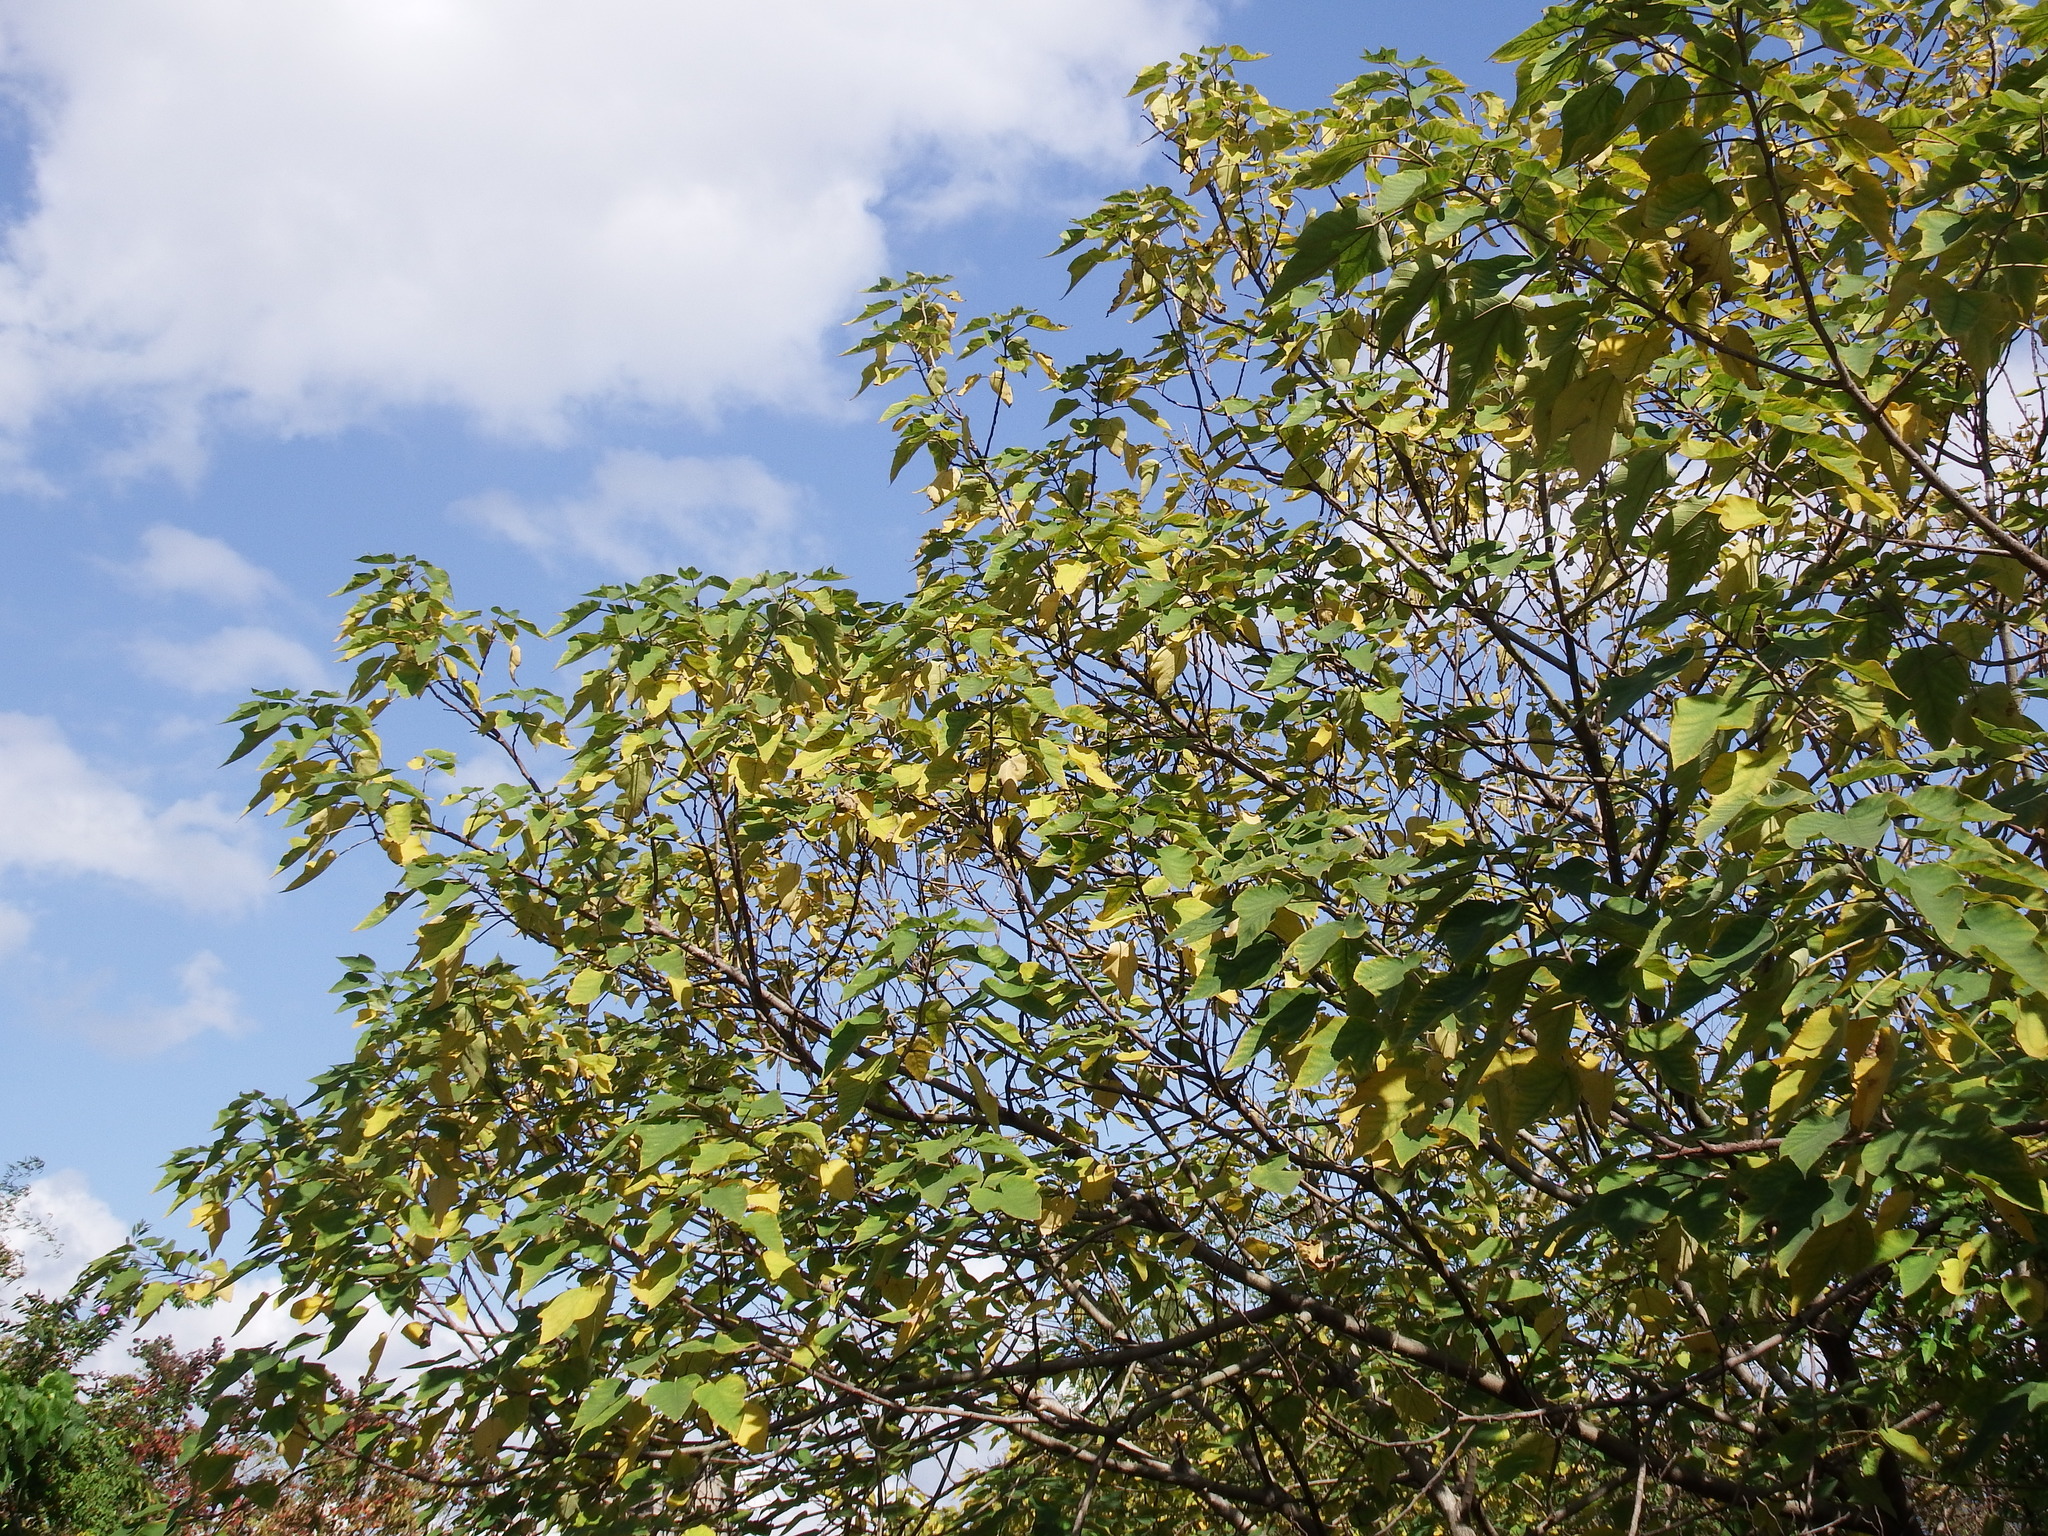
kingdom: Plantae
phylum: Tracheophyta
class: Magnoliopsida
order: Rosales
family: Moraceae
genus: Broussonetia
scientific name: Broussonetia papyrifera
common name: Paper mulberry
